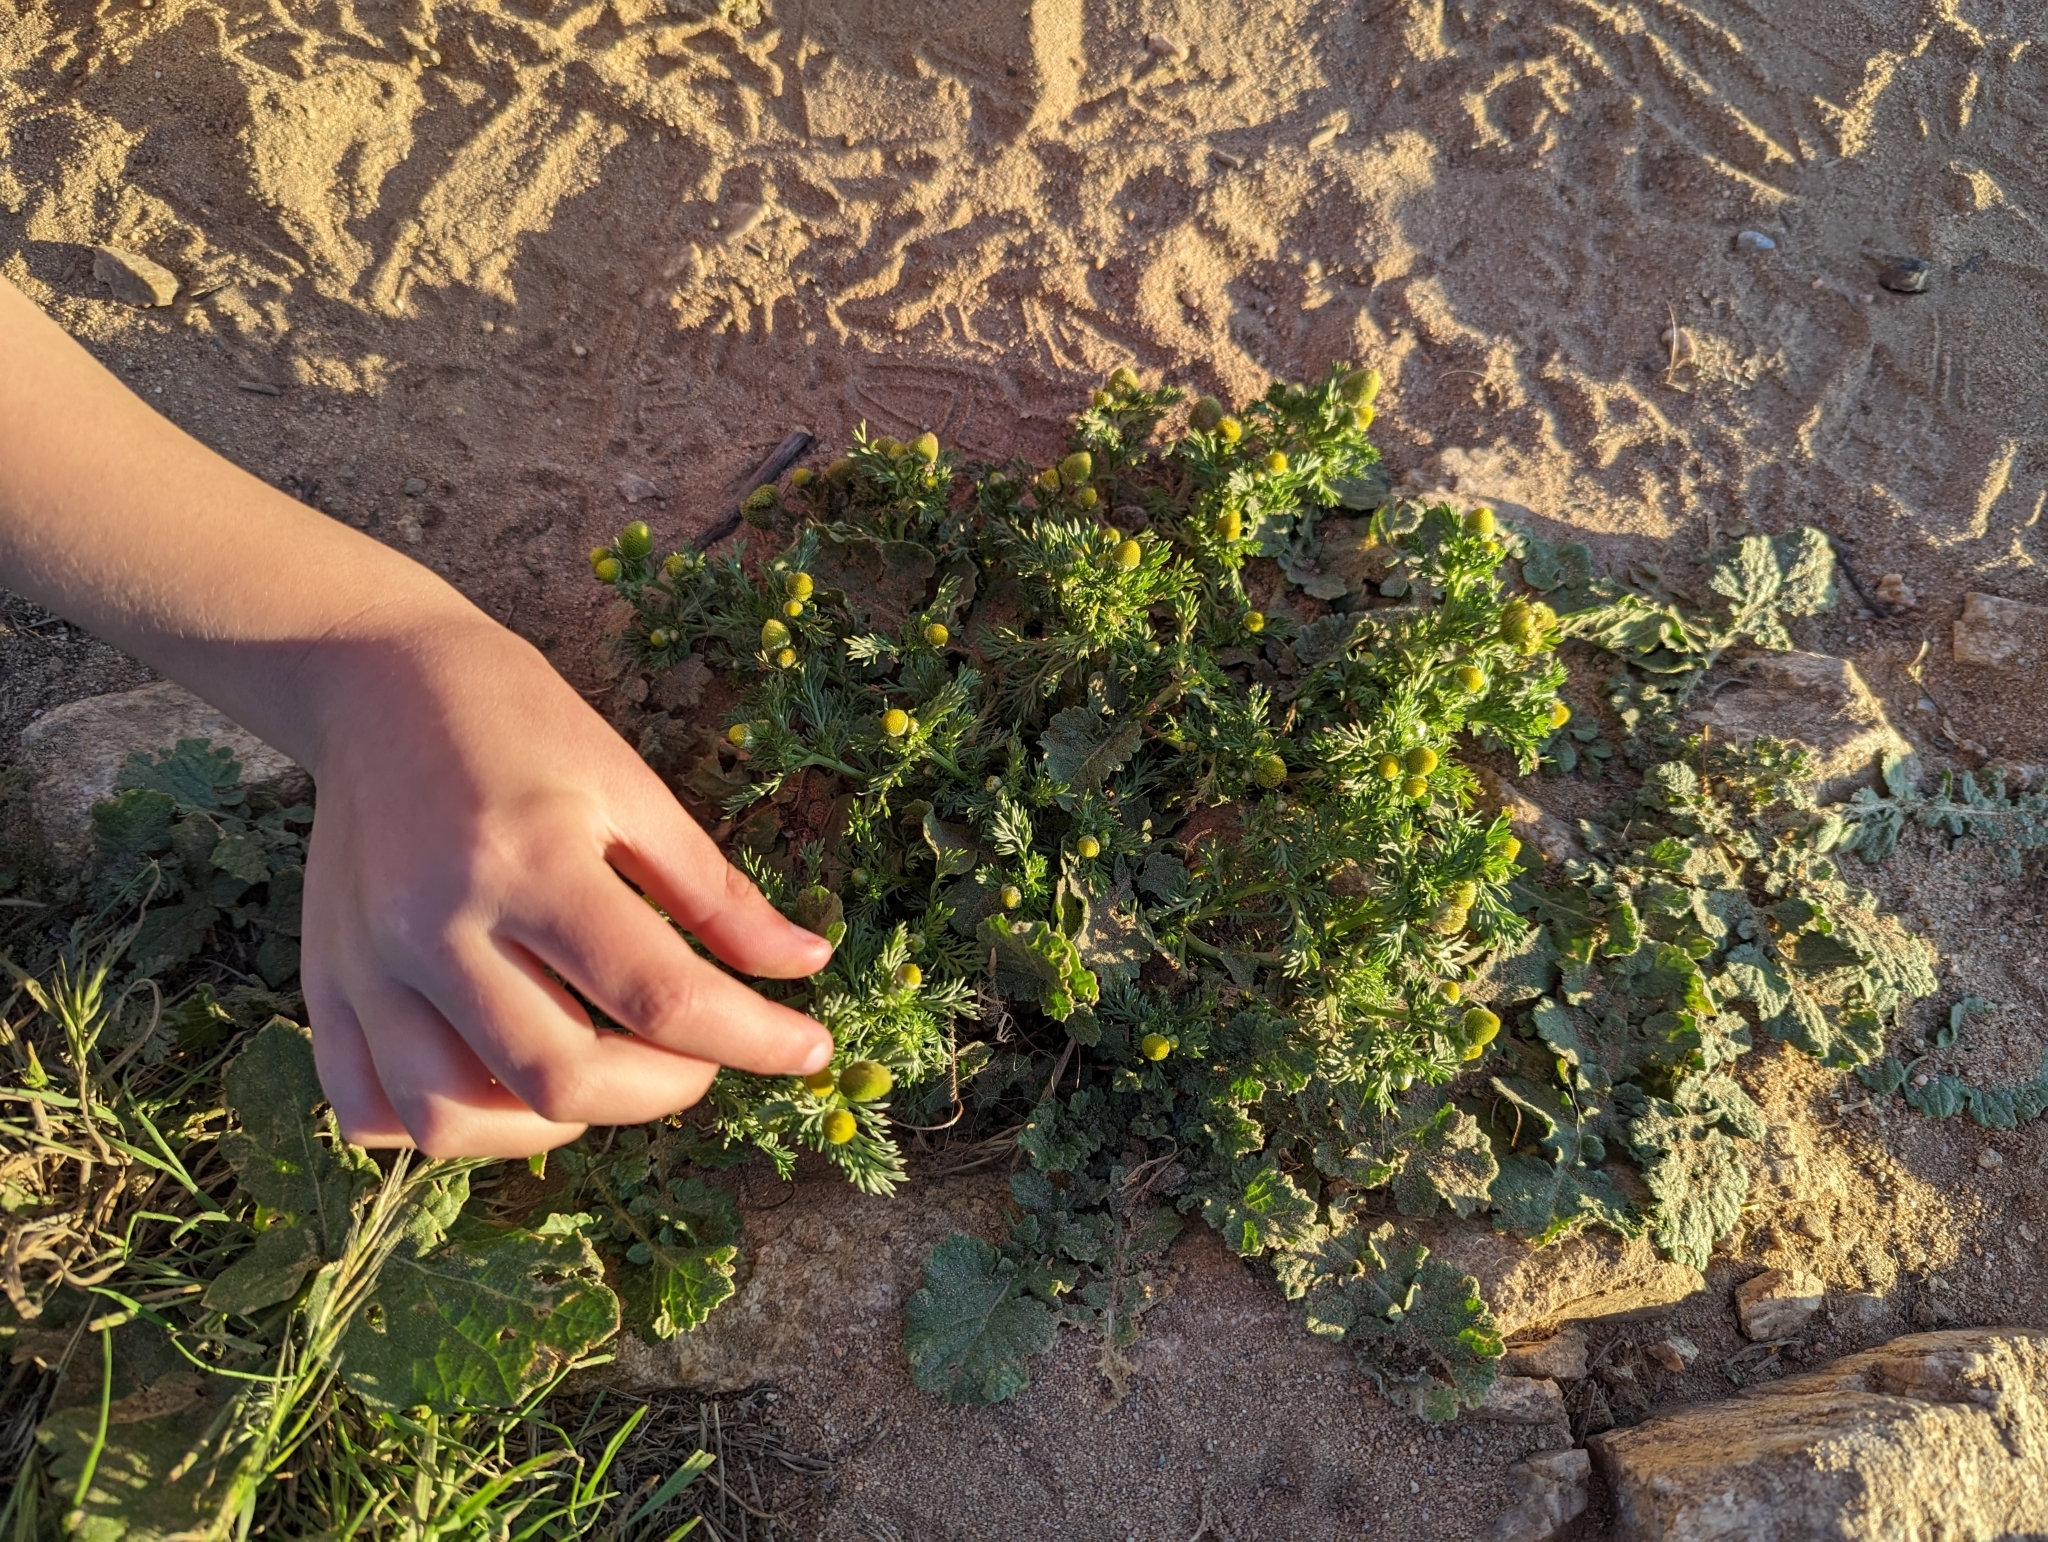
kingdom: Plantae
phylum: Tracheophyta
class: Magnoliopsida
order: Asterales
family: Asteraceae
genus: Matricaria
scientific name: Matricaria discoidea
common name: Disc mayweed
